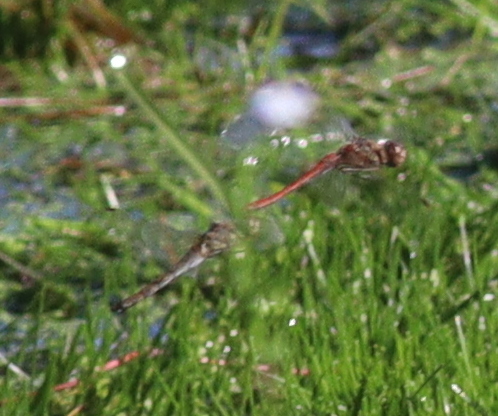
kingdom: Animalia
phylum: Arthropoda
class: Insecta
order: Odonata
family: Libellulidae
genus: Sympetrum
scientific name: Sympetrum striolatum
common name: Common darter
